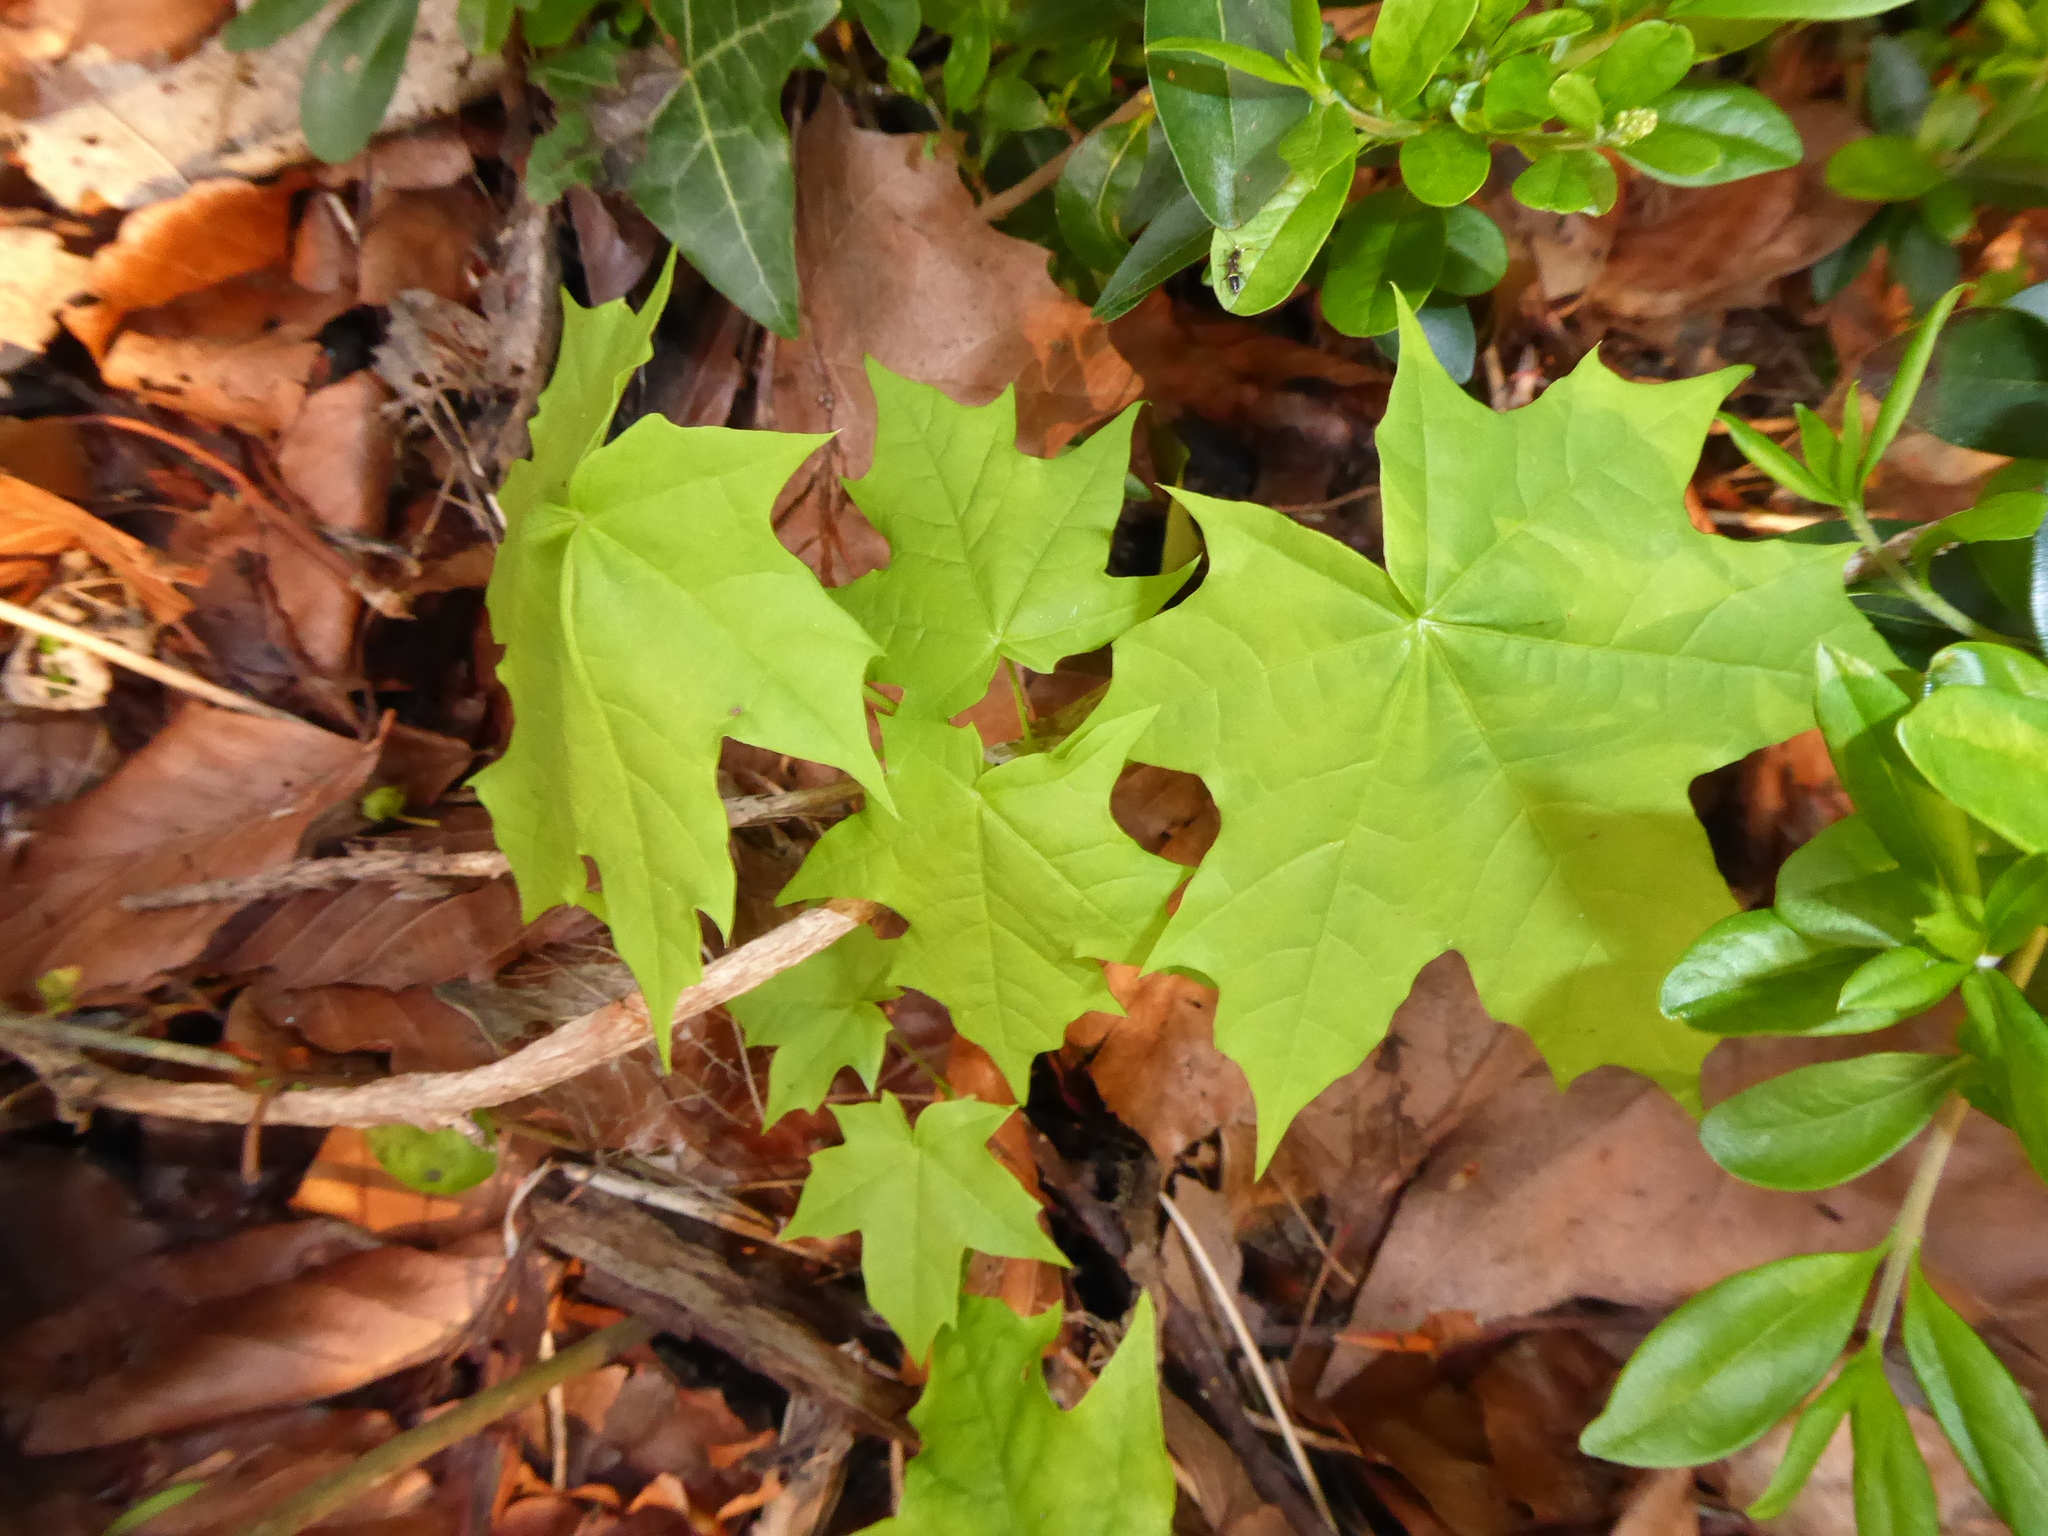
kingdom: Plantae
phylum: Tracheophyta
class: Magnoliopsida
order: Sapindales
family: Sapindaceae
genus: Acer
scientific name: Acer platanoides
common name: Norway maple
